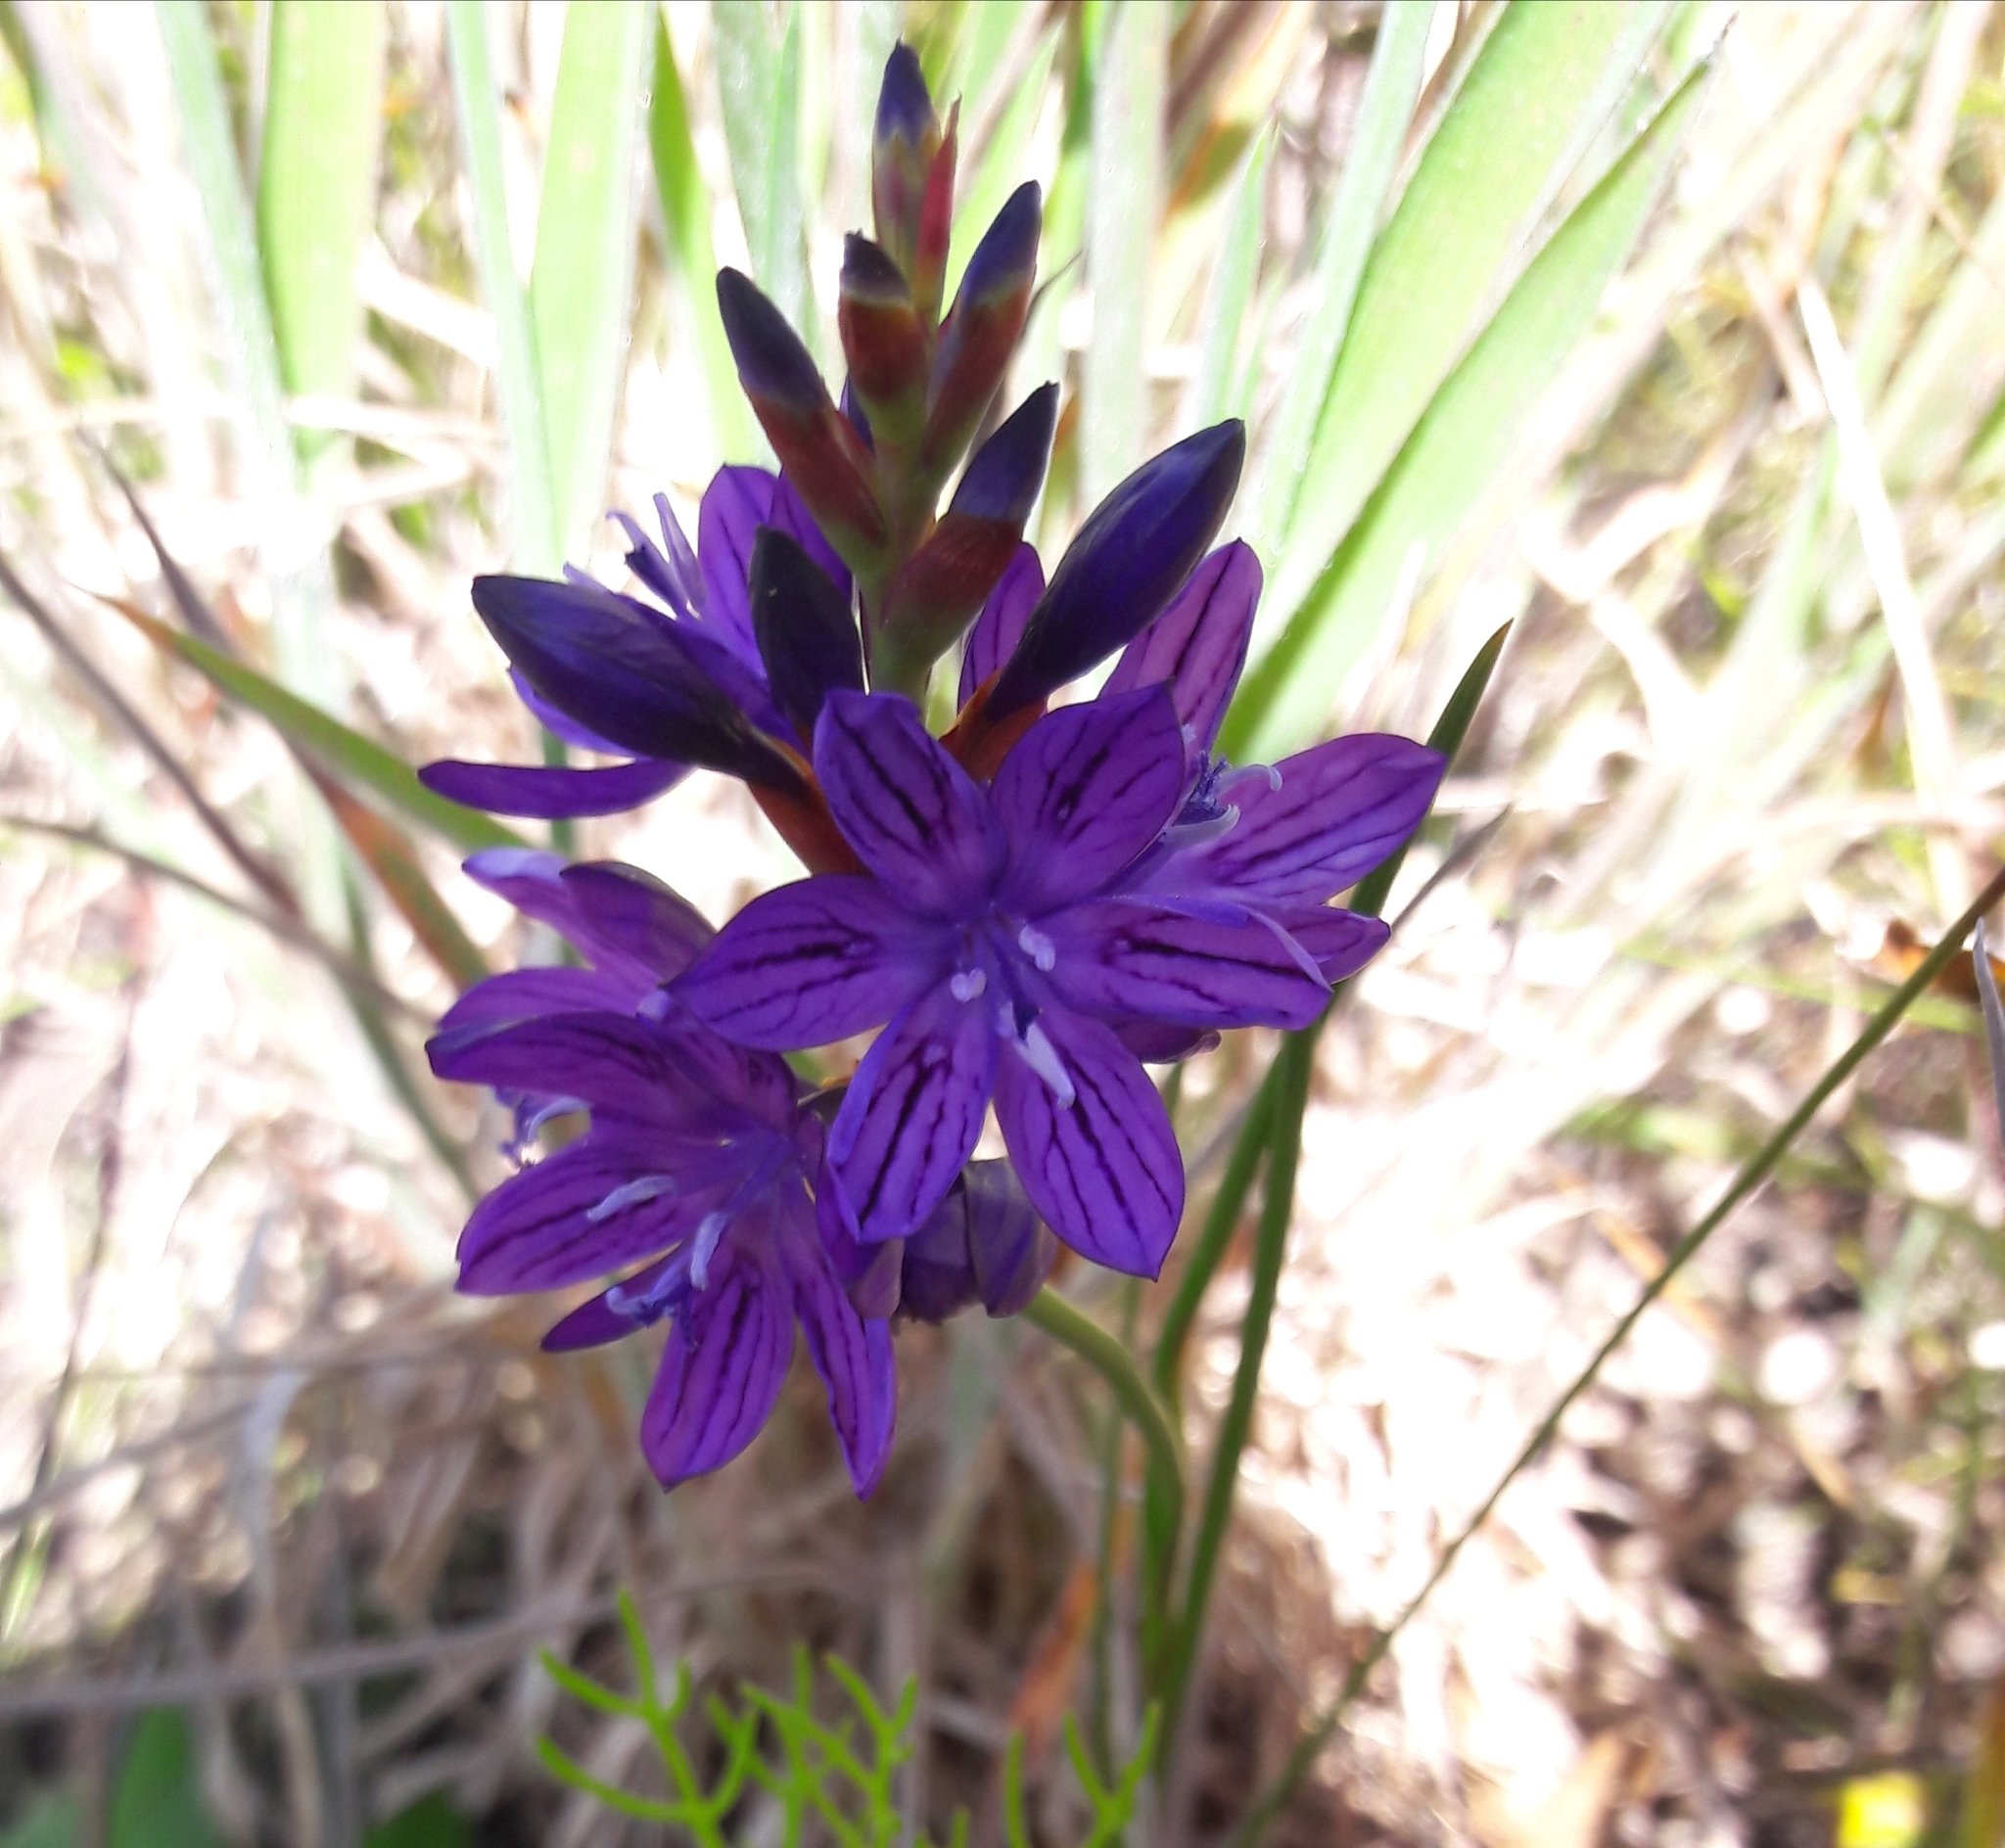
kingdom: Plantae
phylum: Tracheophyta
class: Liliopsida
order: Asparagales
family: Iridaceae
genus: Thereianthus
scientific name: Thereianthus bracteolatus
